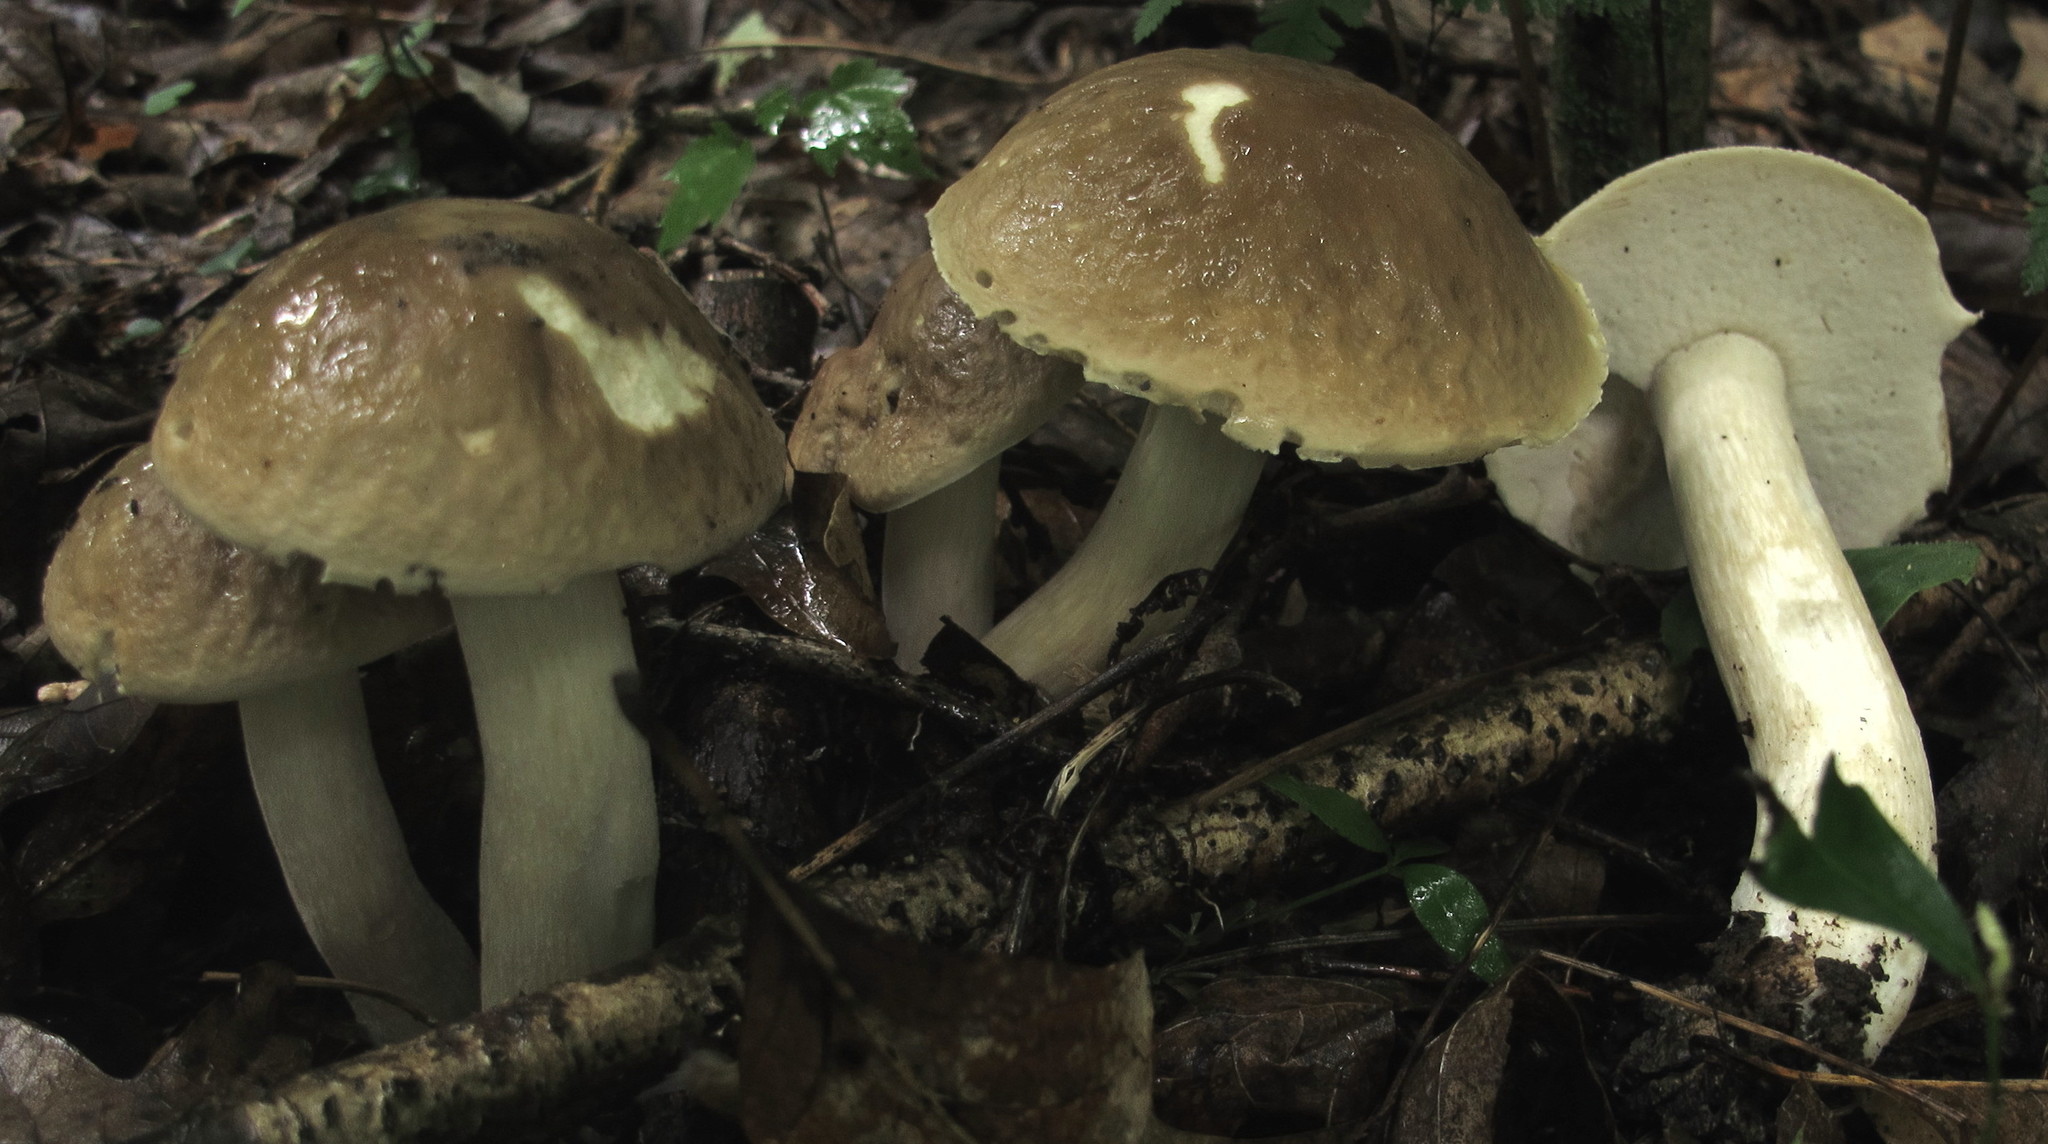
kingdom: Fungi
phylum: Basidiomycota
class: Agaricomycetes
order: Boletales
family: Boletaceae
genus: Boletus
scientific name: Boletus atkinsonii
